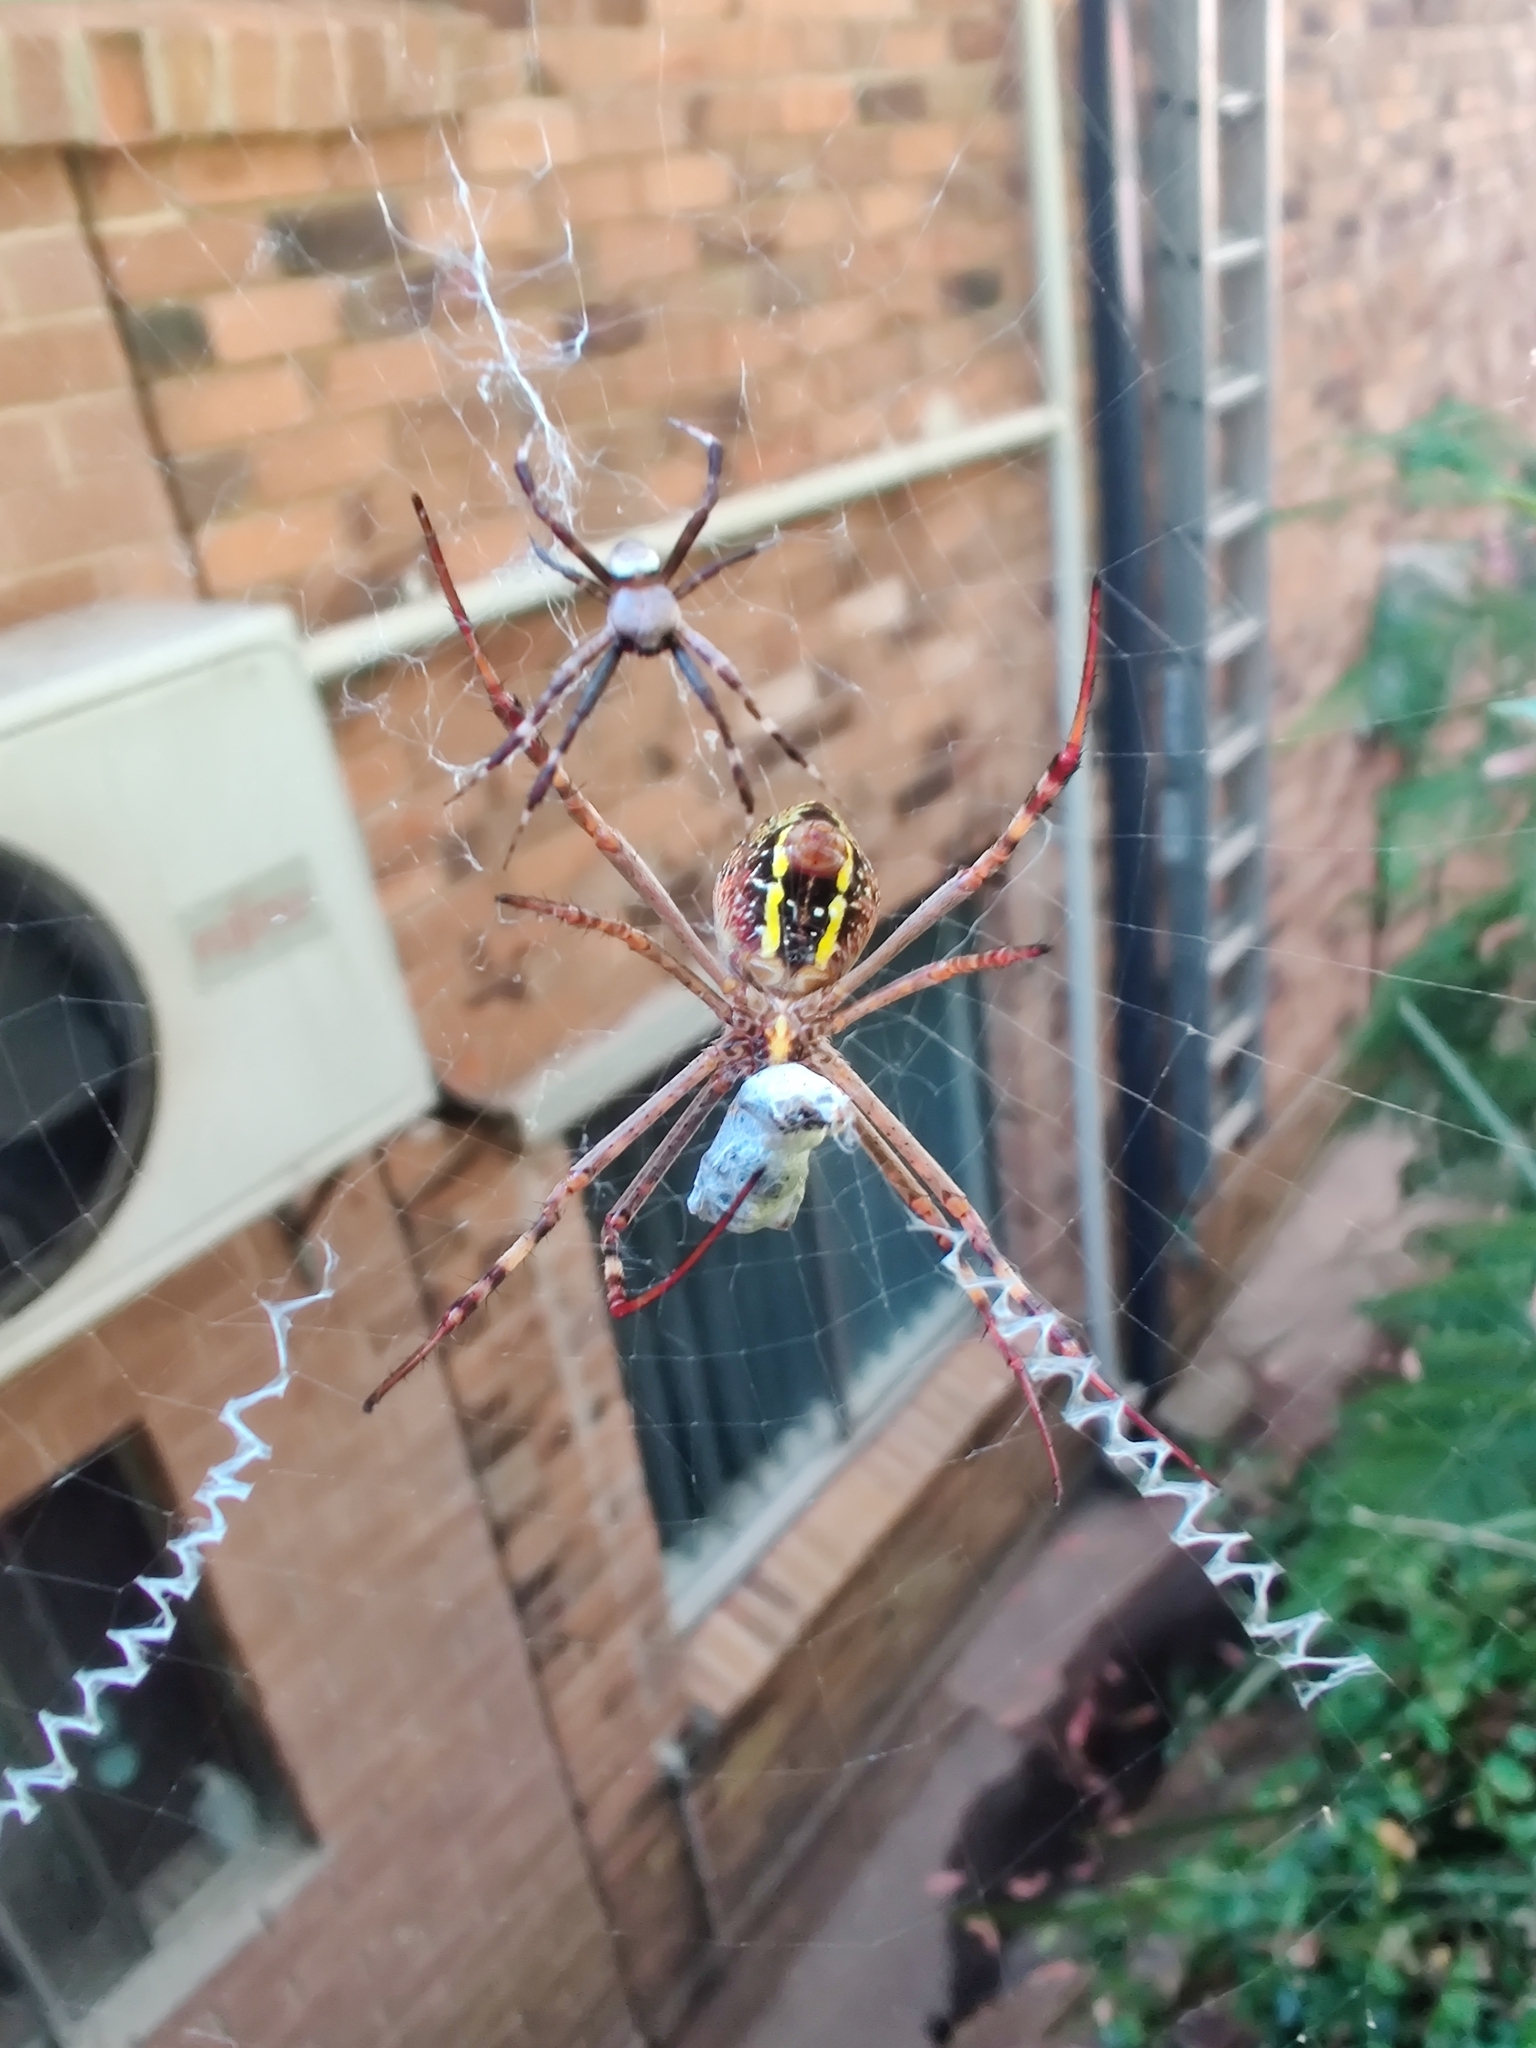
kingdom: Animalia
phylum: Arthropoda
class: Arachnida
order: Araneae
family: Araneidae
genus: Argiope
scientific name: Argiope keyserlingi
